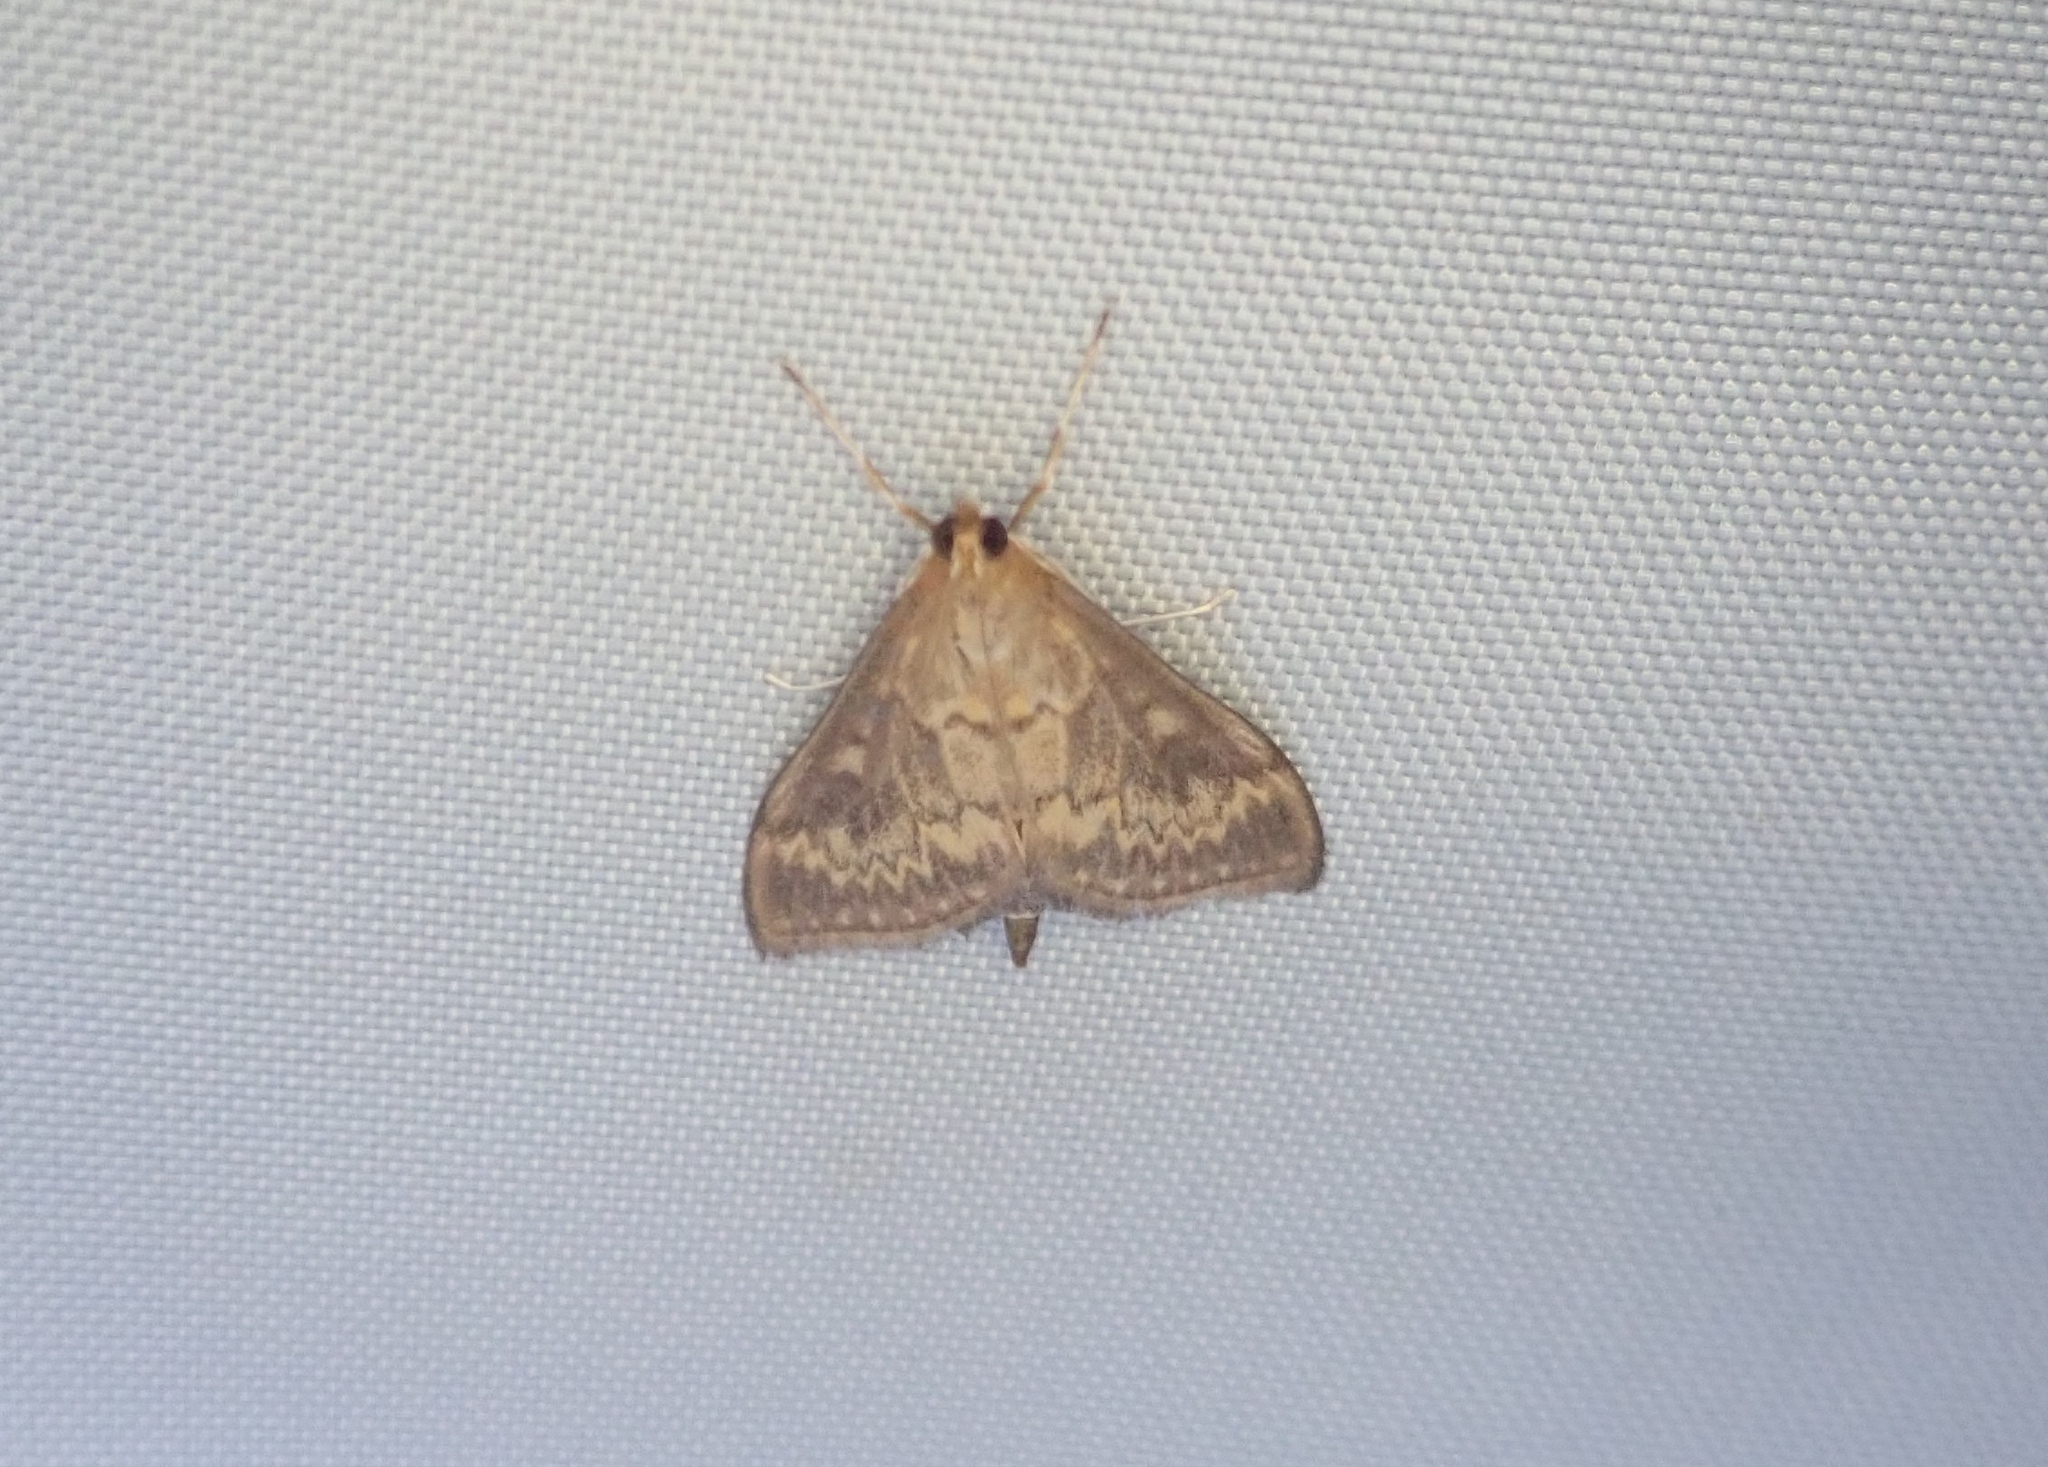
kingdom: Animalia
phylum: Arthropoda
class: Insecta
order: Lepidoptera
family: Crambidae
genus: Ostrinia
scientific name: Ostrinia nubilalis
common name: European corn borer
